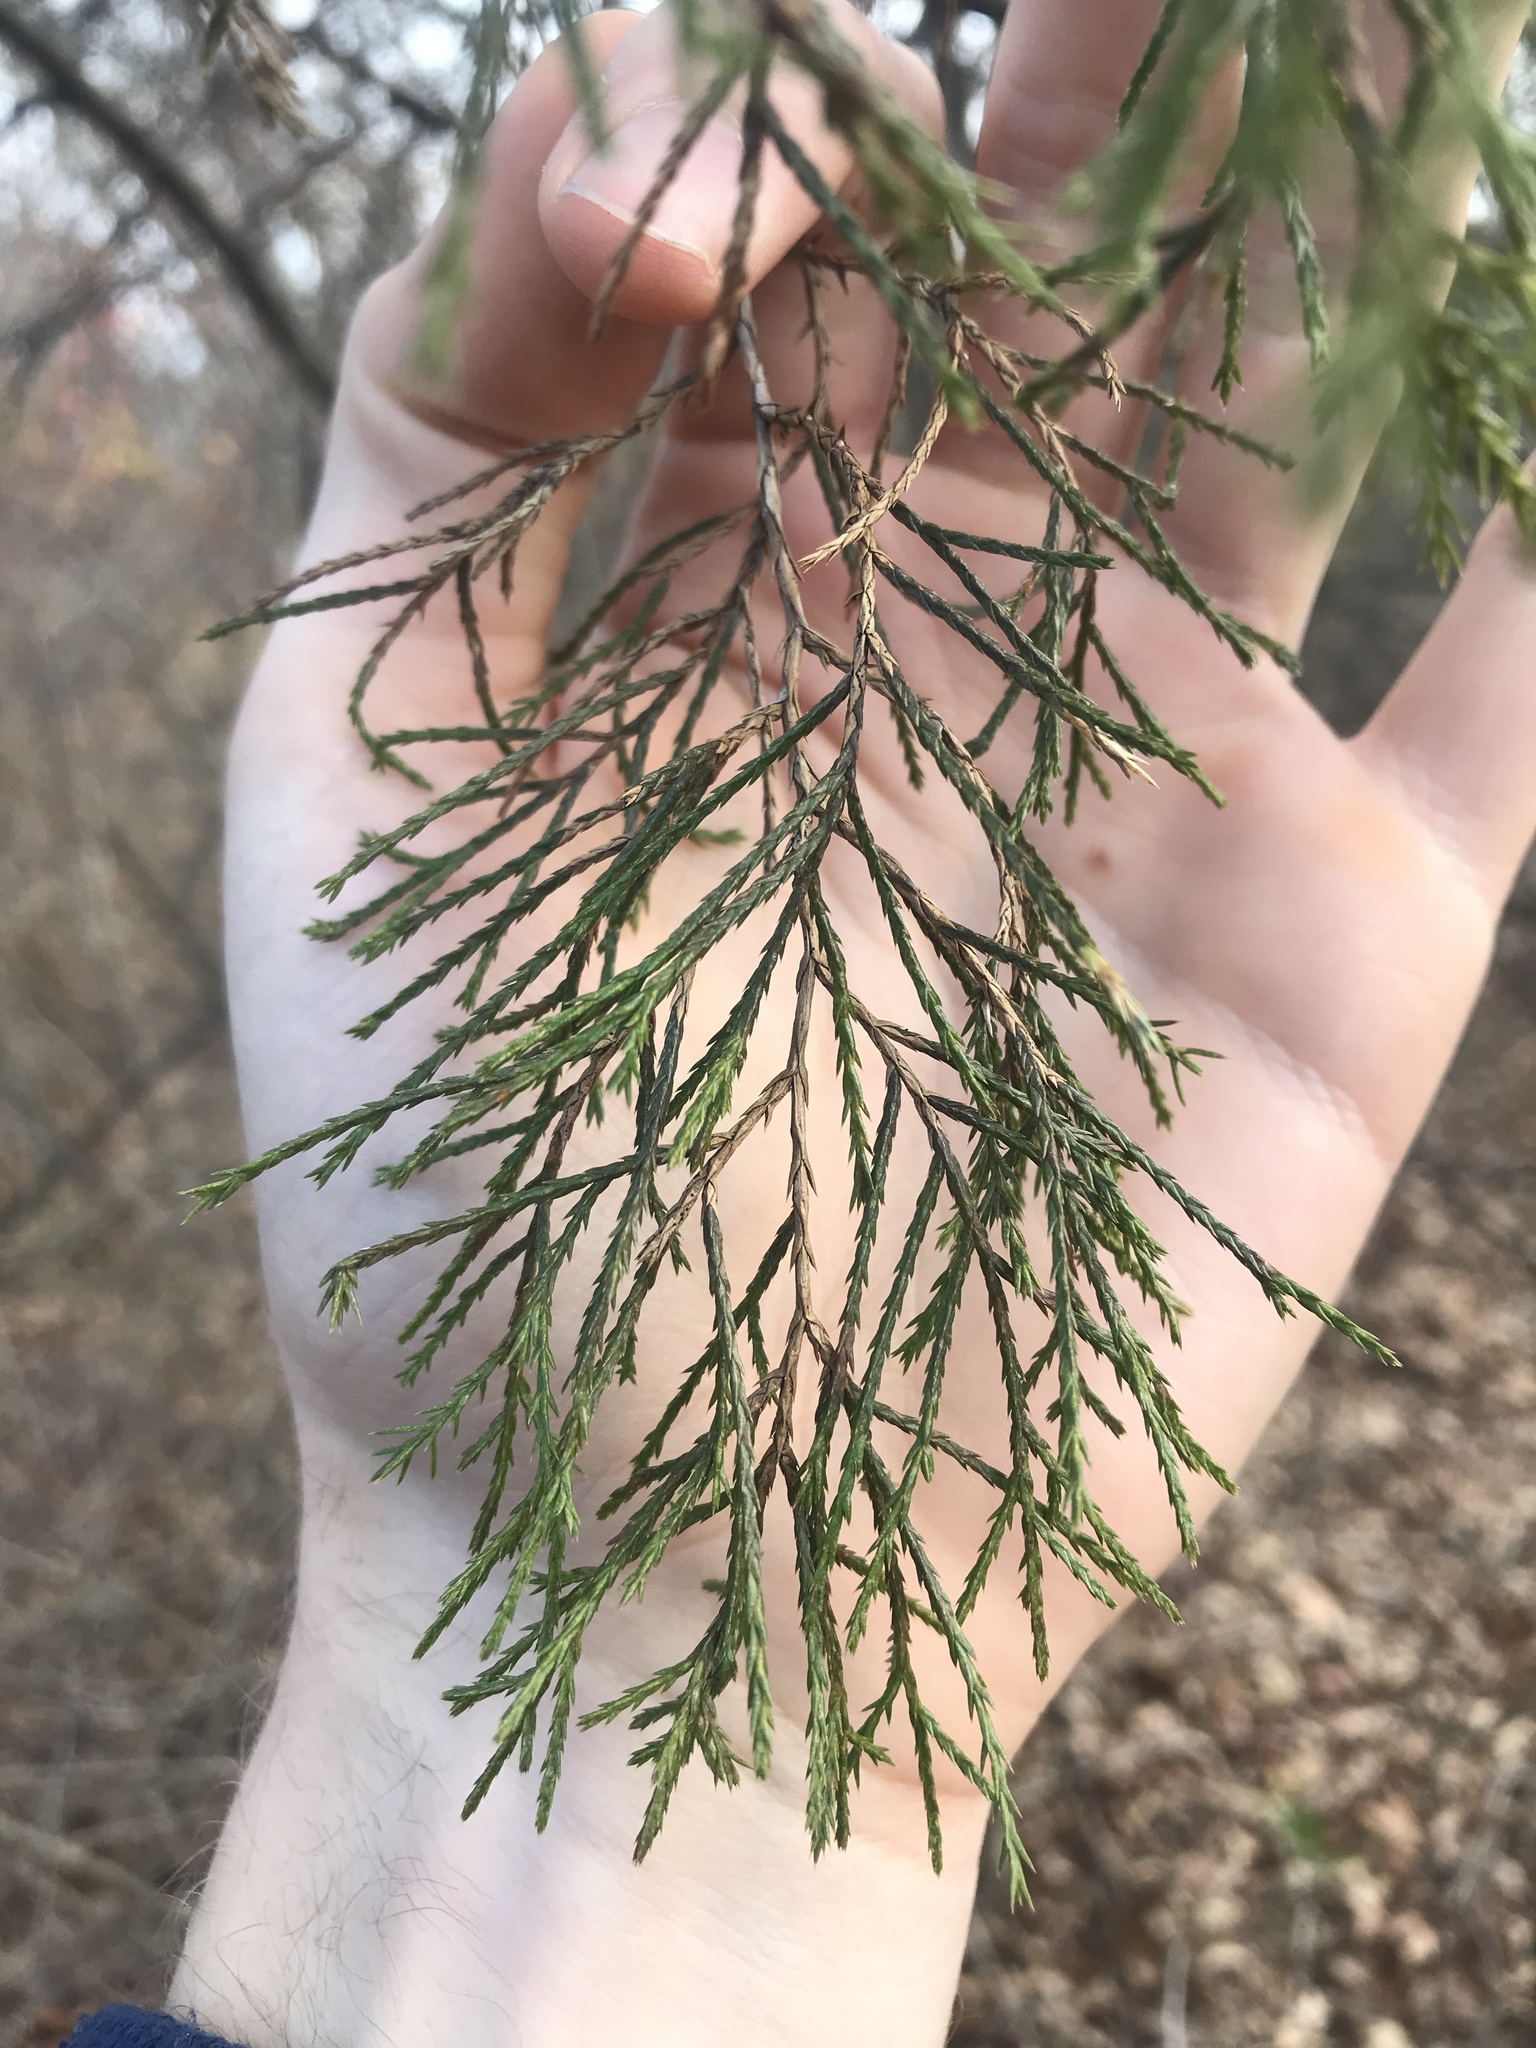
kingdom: Plantae
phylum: Tracheophyta
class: Pinopsida
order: Pinales
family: Cupressaceae
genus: Juniperus
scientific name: Juniperus virginiana
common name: Red juniper
